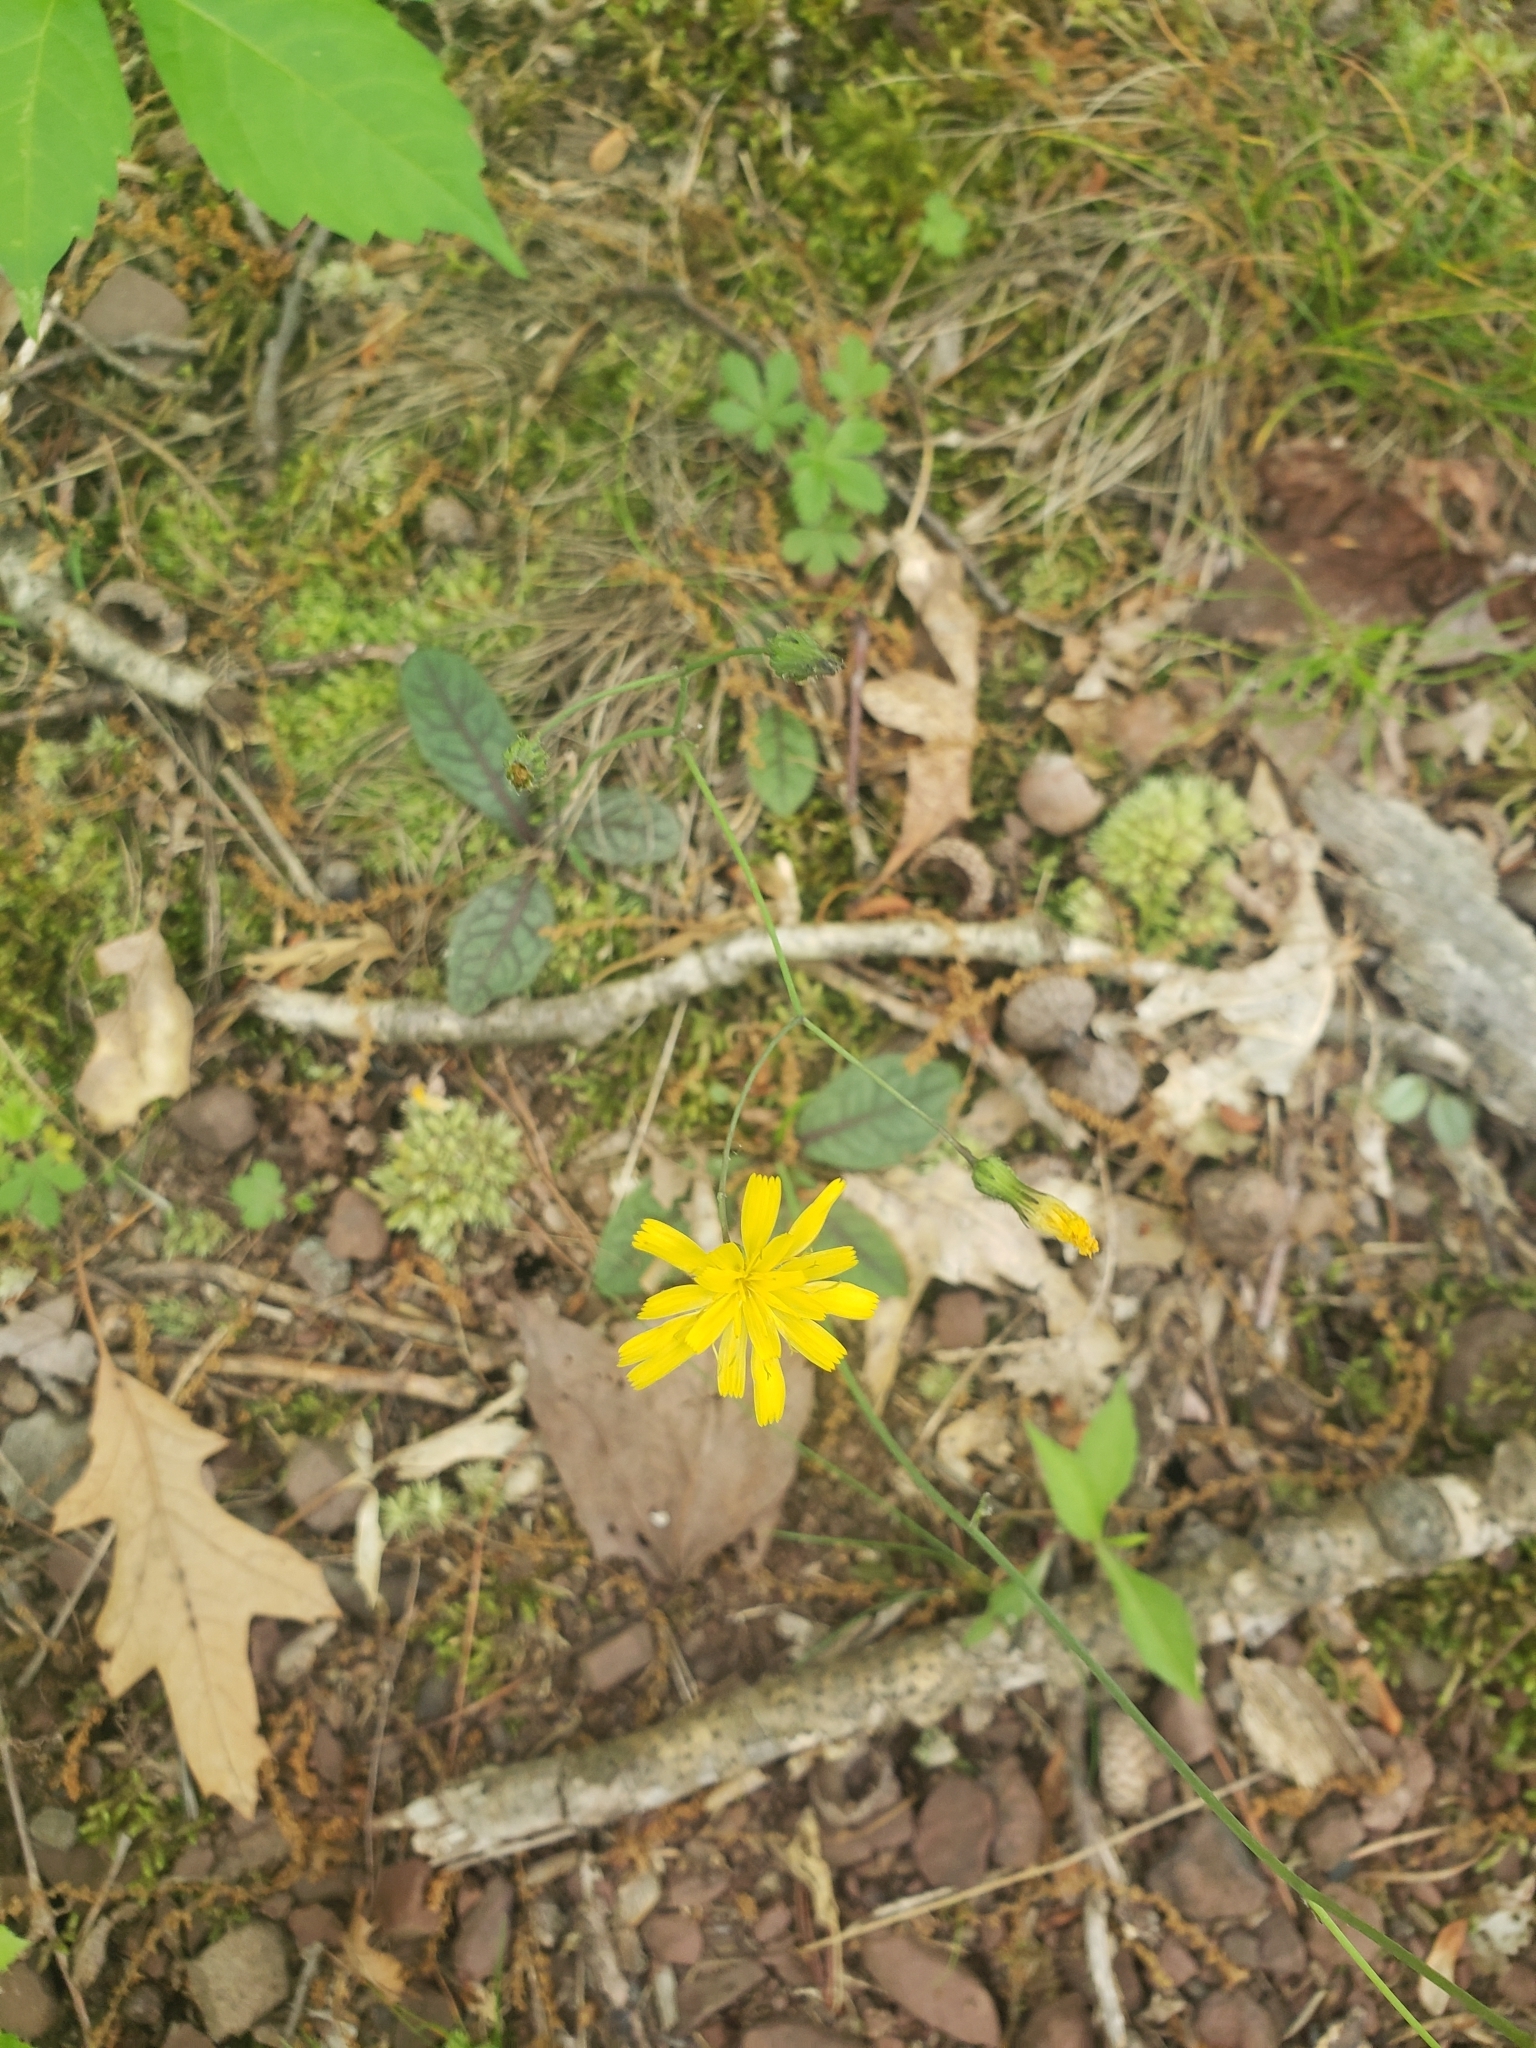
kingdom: Plantae
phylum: Tracheophyta
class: Magnoliopsida
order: Asterales
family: Asteraceae
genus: Hieracium
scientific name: Hieracium venosum
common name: Rattlesnake hawkweed
